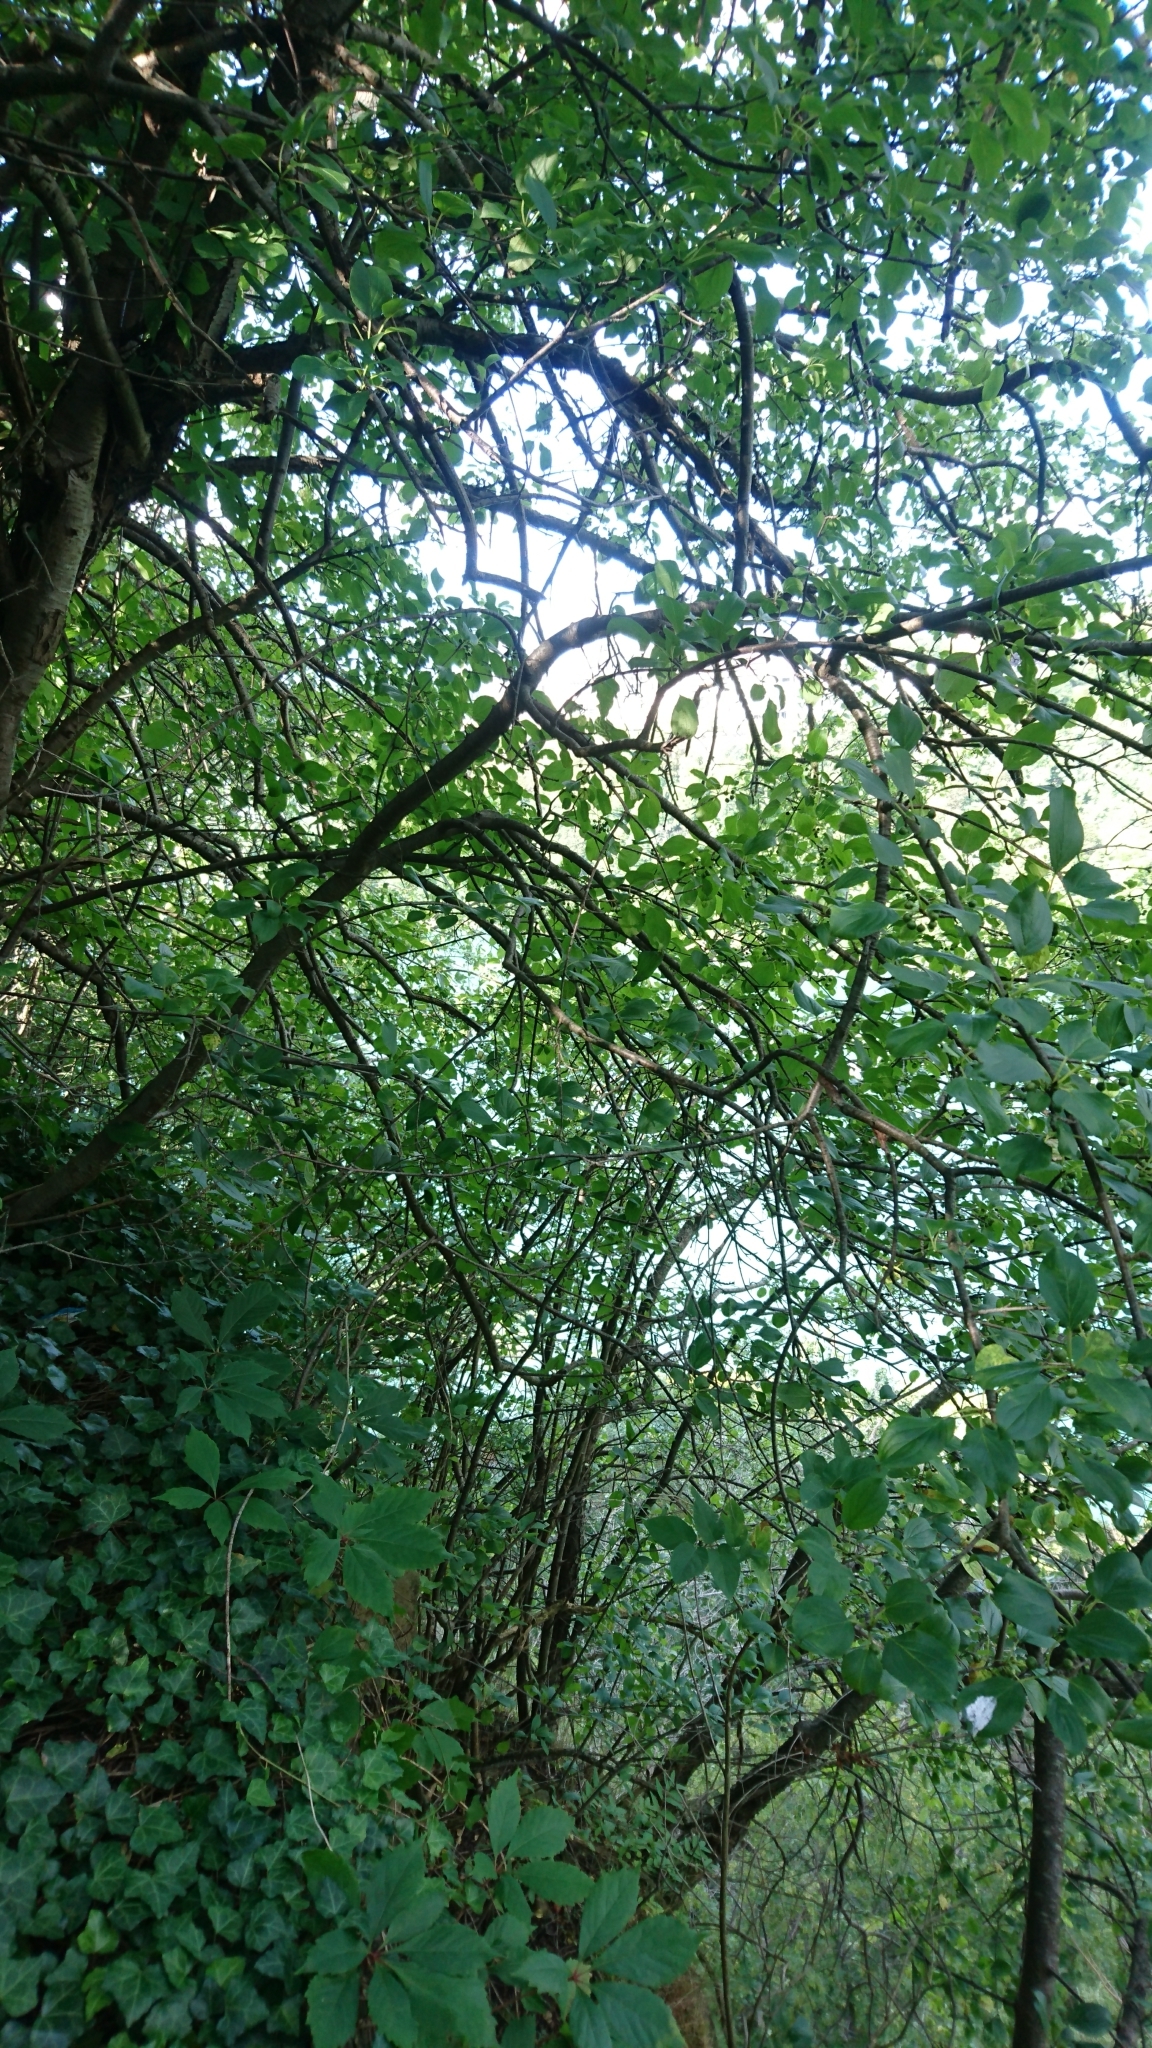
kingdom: Plantae
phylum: Tracheophyta
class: Magnoliopsida
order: Rosales
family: Rhamnaceae
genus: Rhamnus
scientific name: Rhamnus cathartica
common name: Common buckthorn
